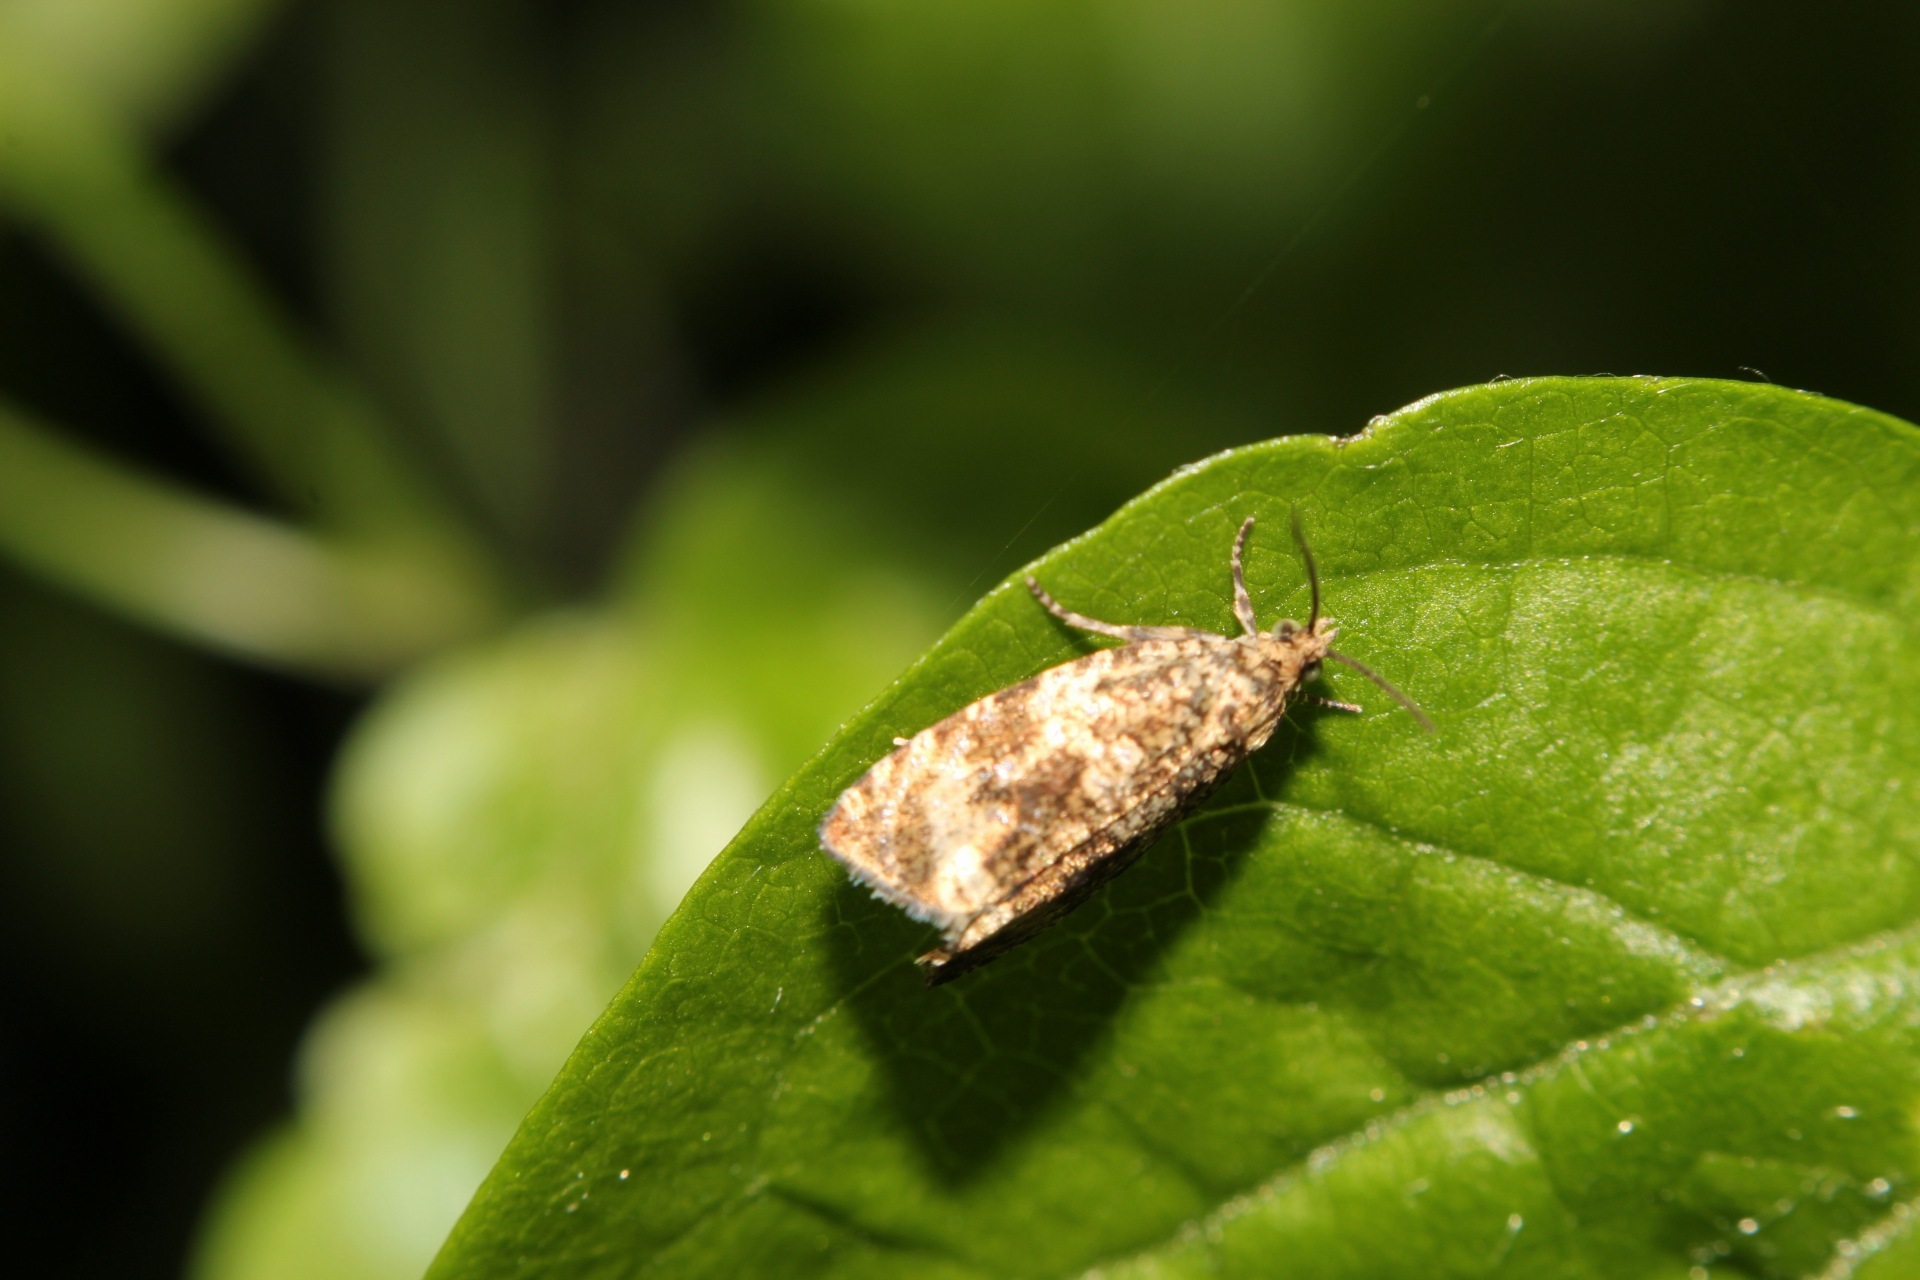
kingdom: Animalia
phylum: Arthropoda
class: Insecta
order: Lepidoptera
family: Tortricidae
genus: Syricoris
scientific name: Syricoris lacunana
